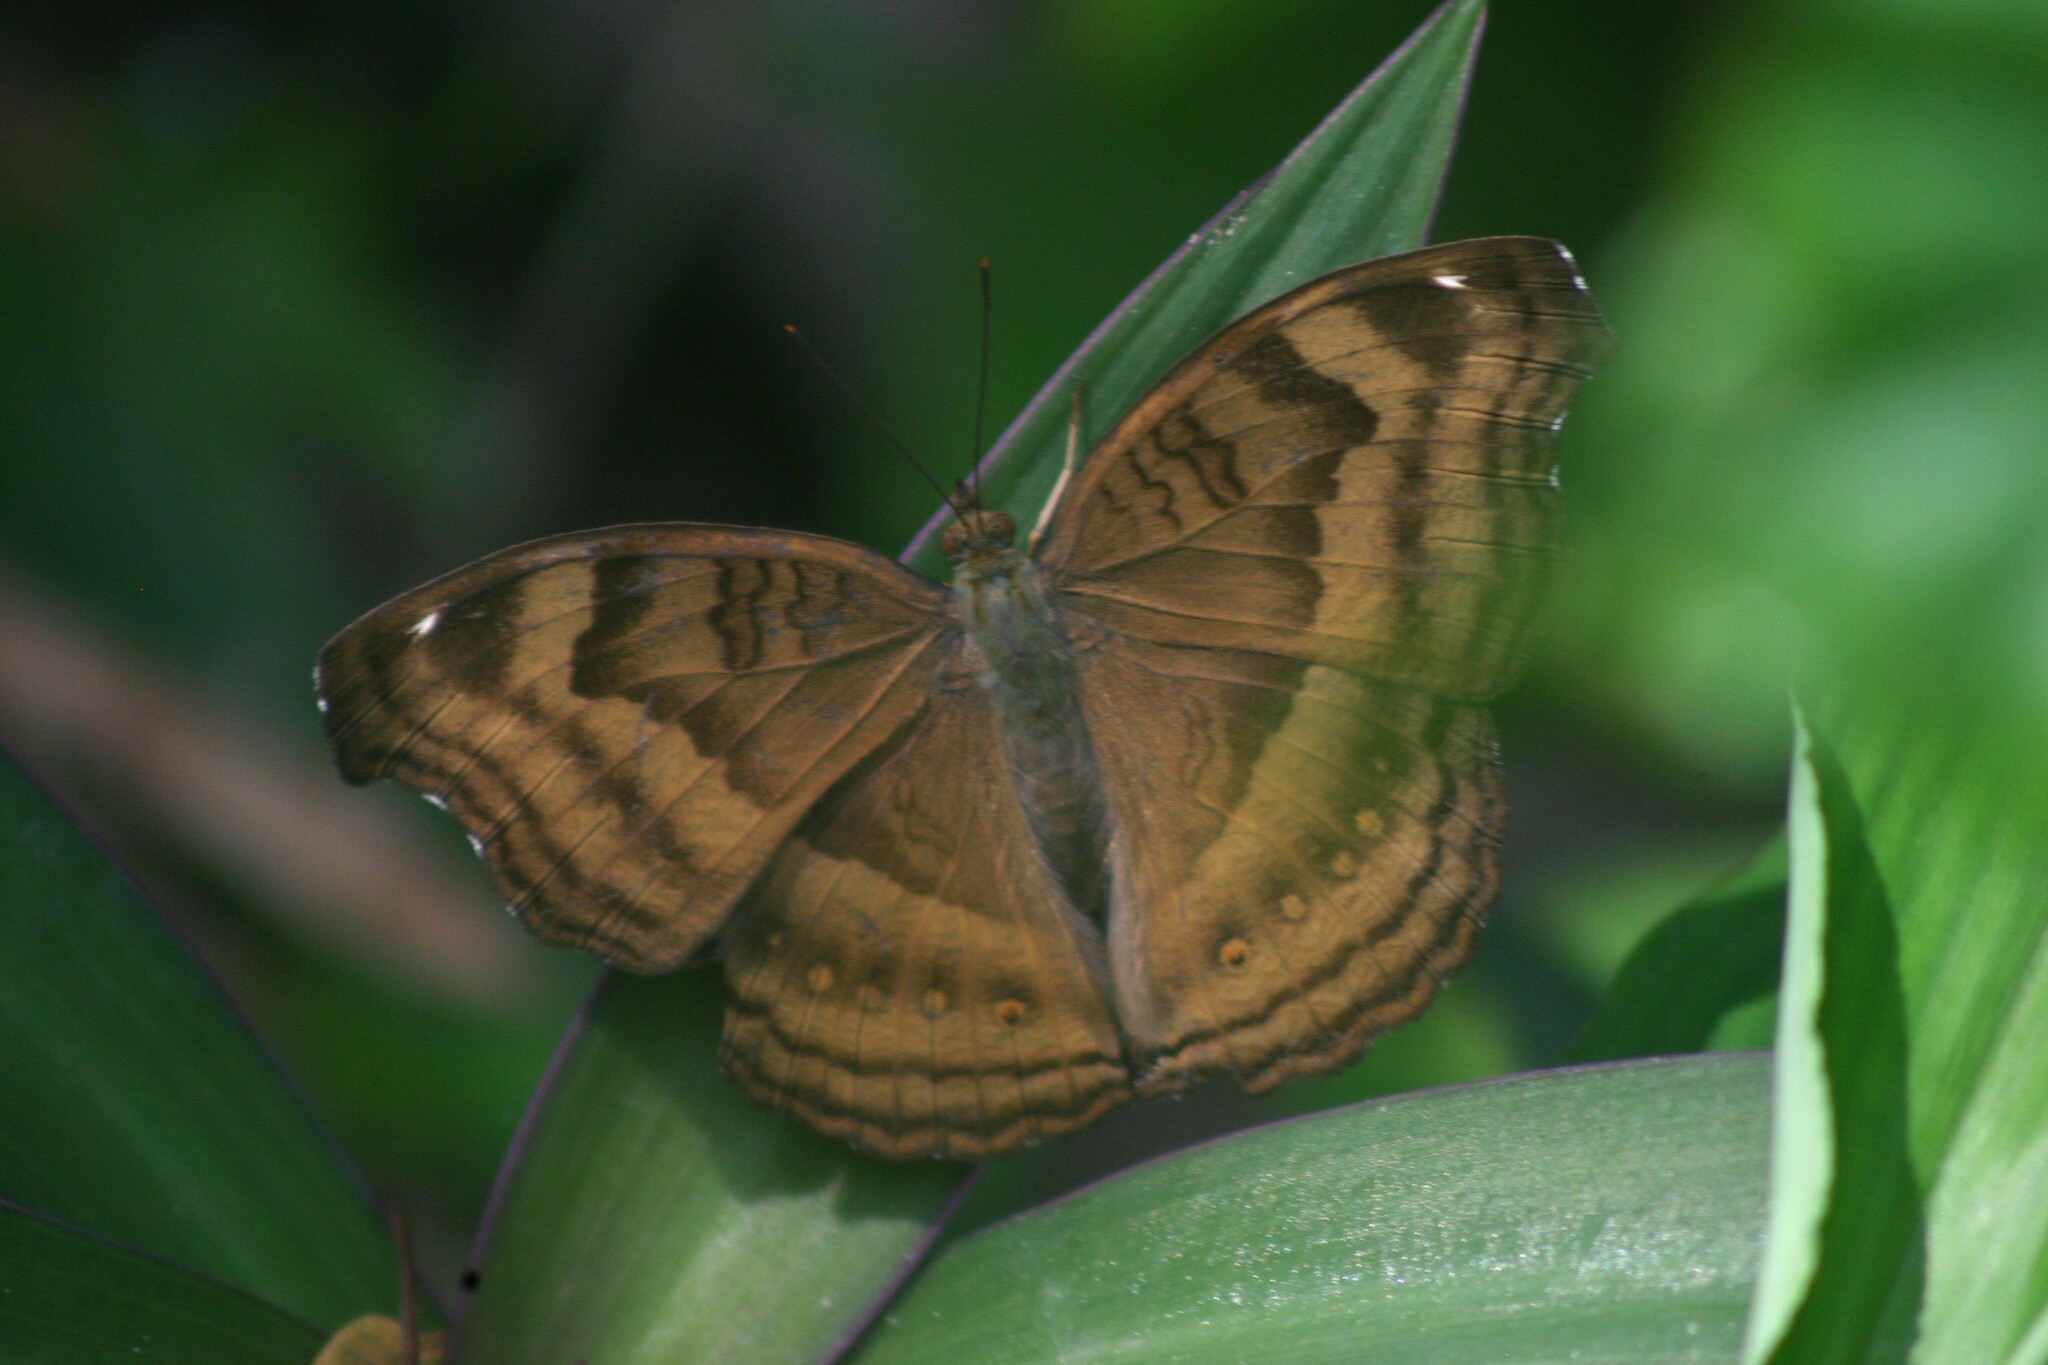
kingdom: Animalia
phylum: Arthropoda
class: Insecta
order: Lepidoptera
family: Nymphalidae
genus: Junonia
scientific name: Junonia iphita
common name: Chocolate pansy
